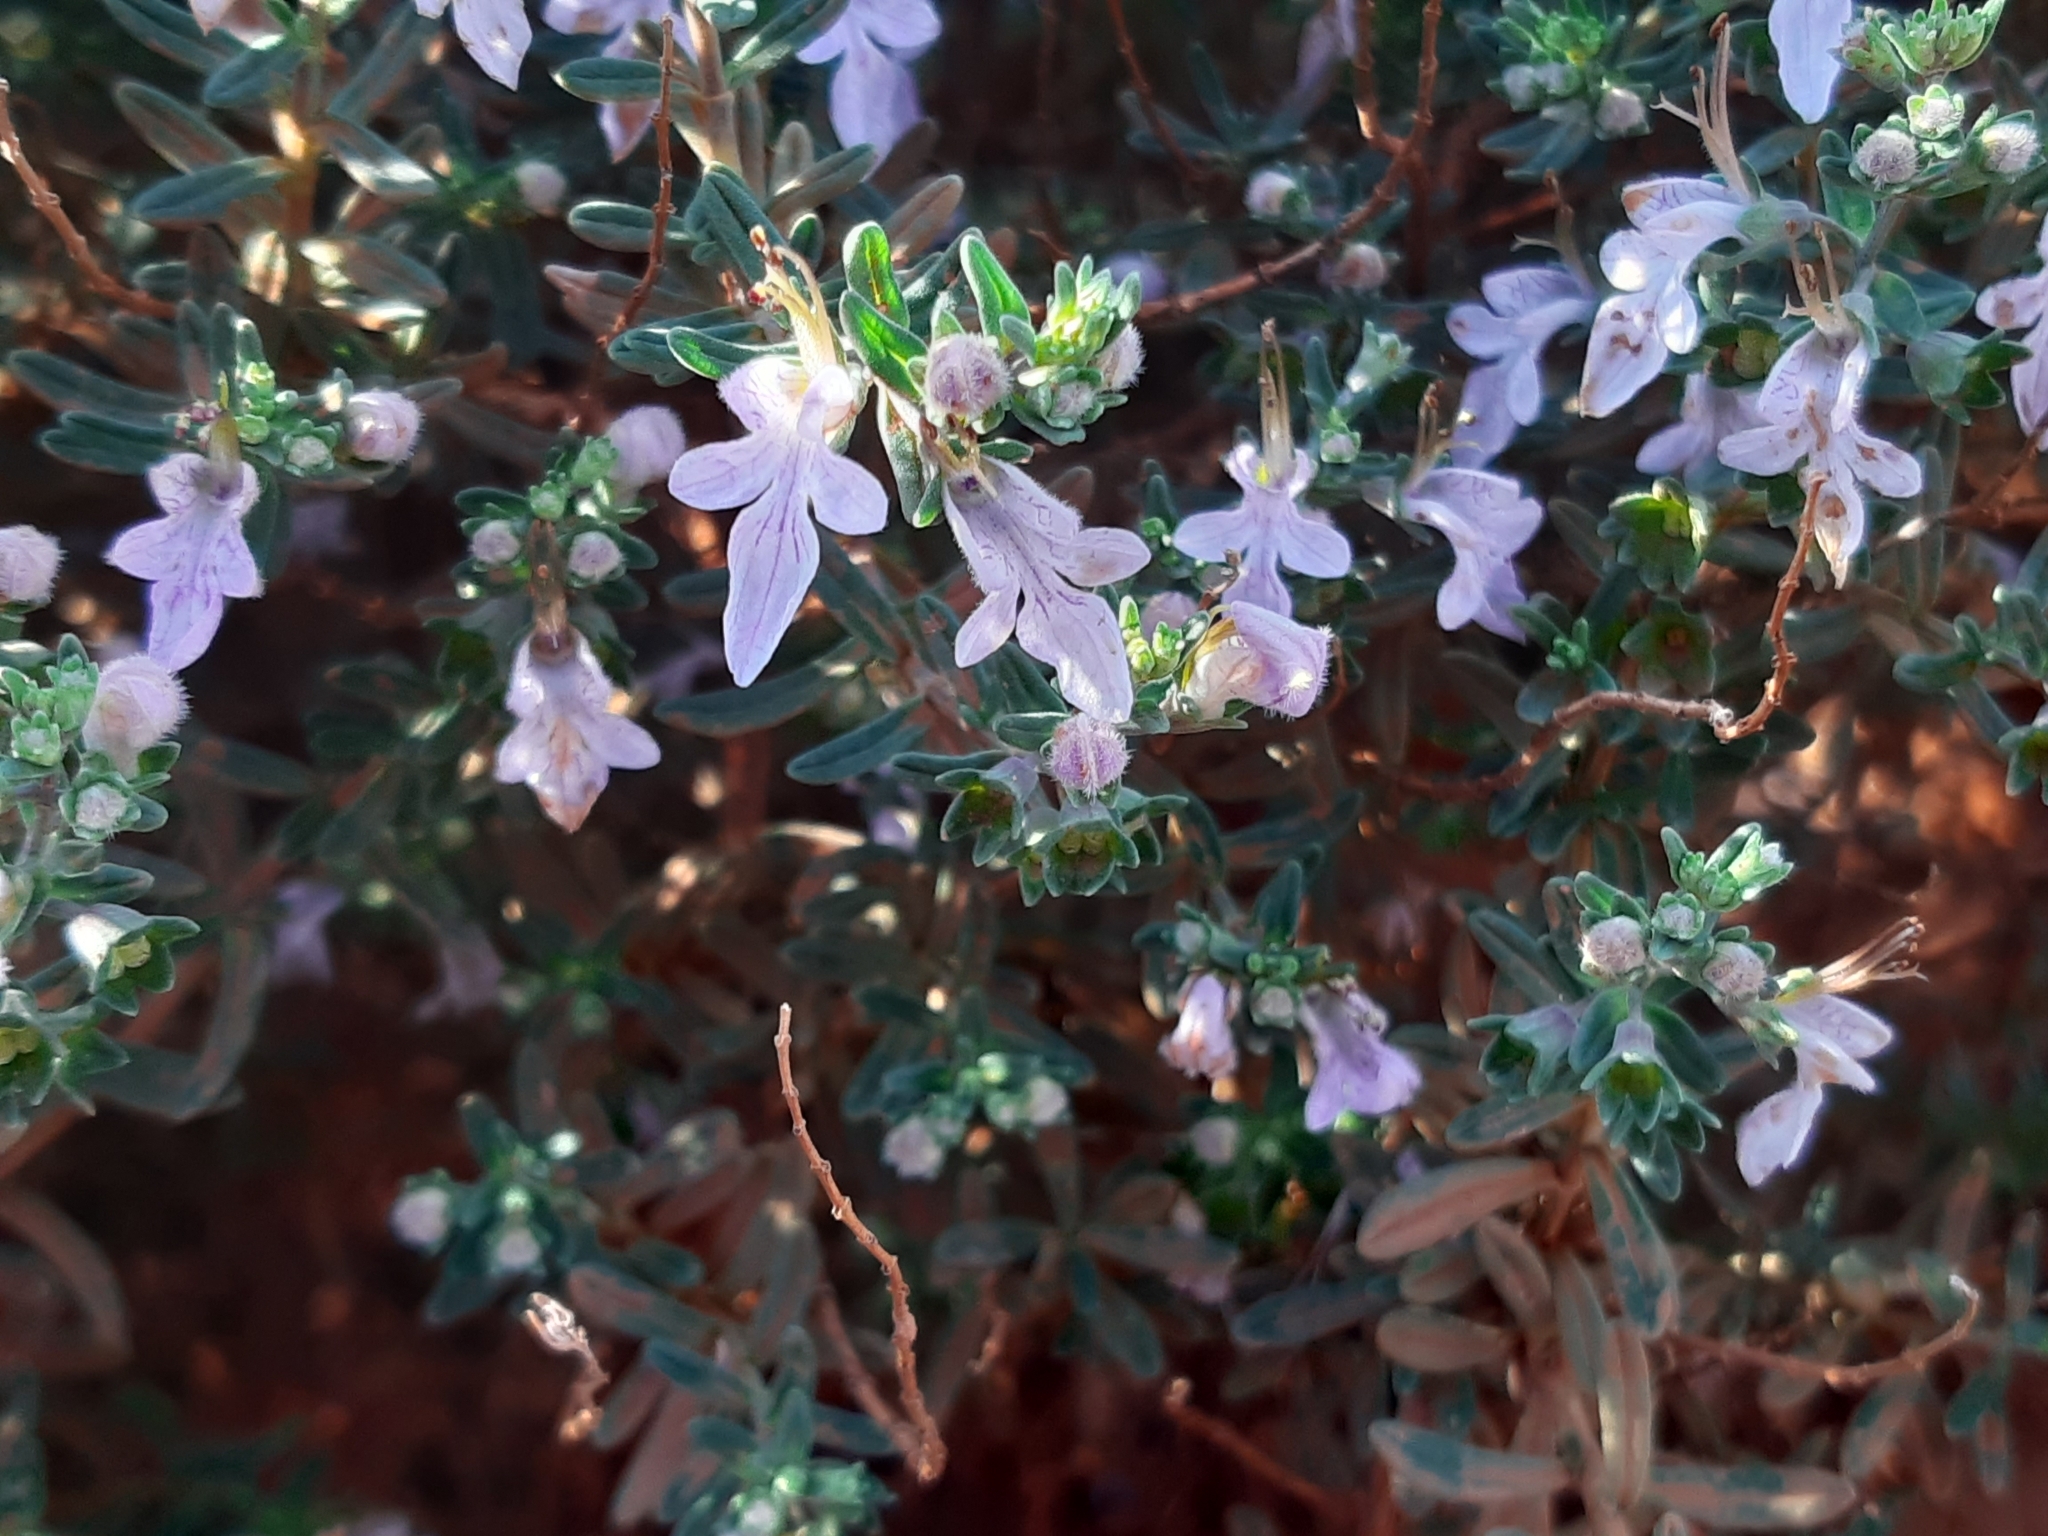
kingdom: Plantae
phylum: Tracheophyta
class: Magnoliopsida
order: Lamiales
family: Lamiaceae
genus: Teucrium
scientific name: Teucrium brevifolium
